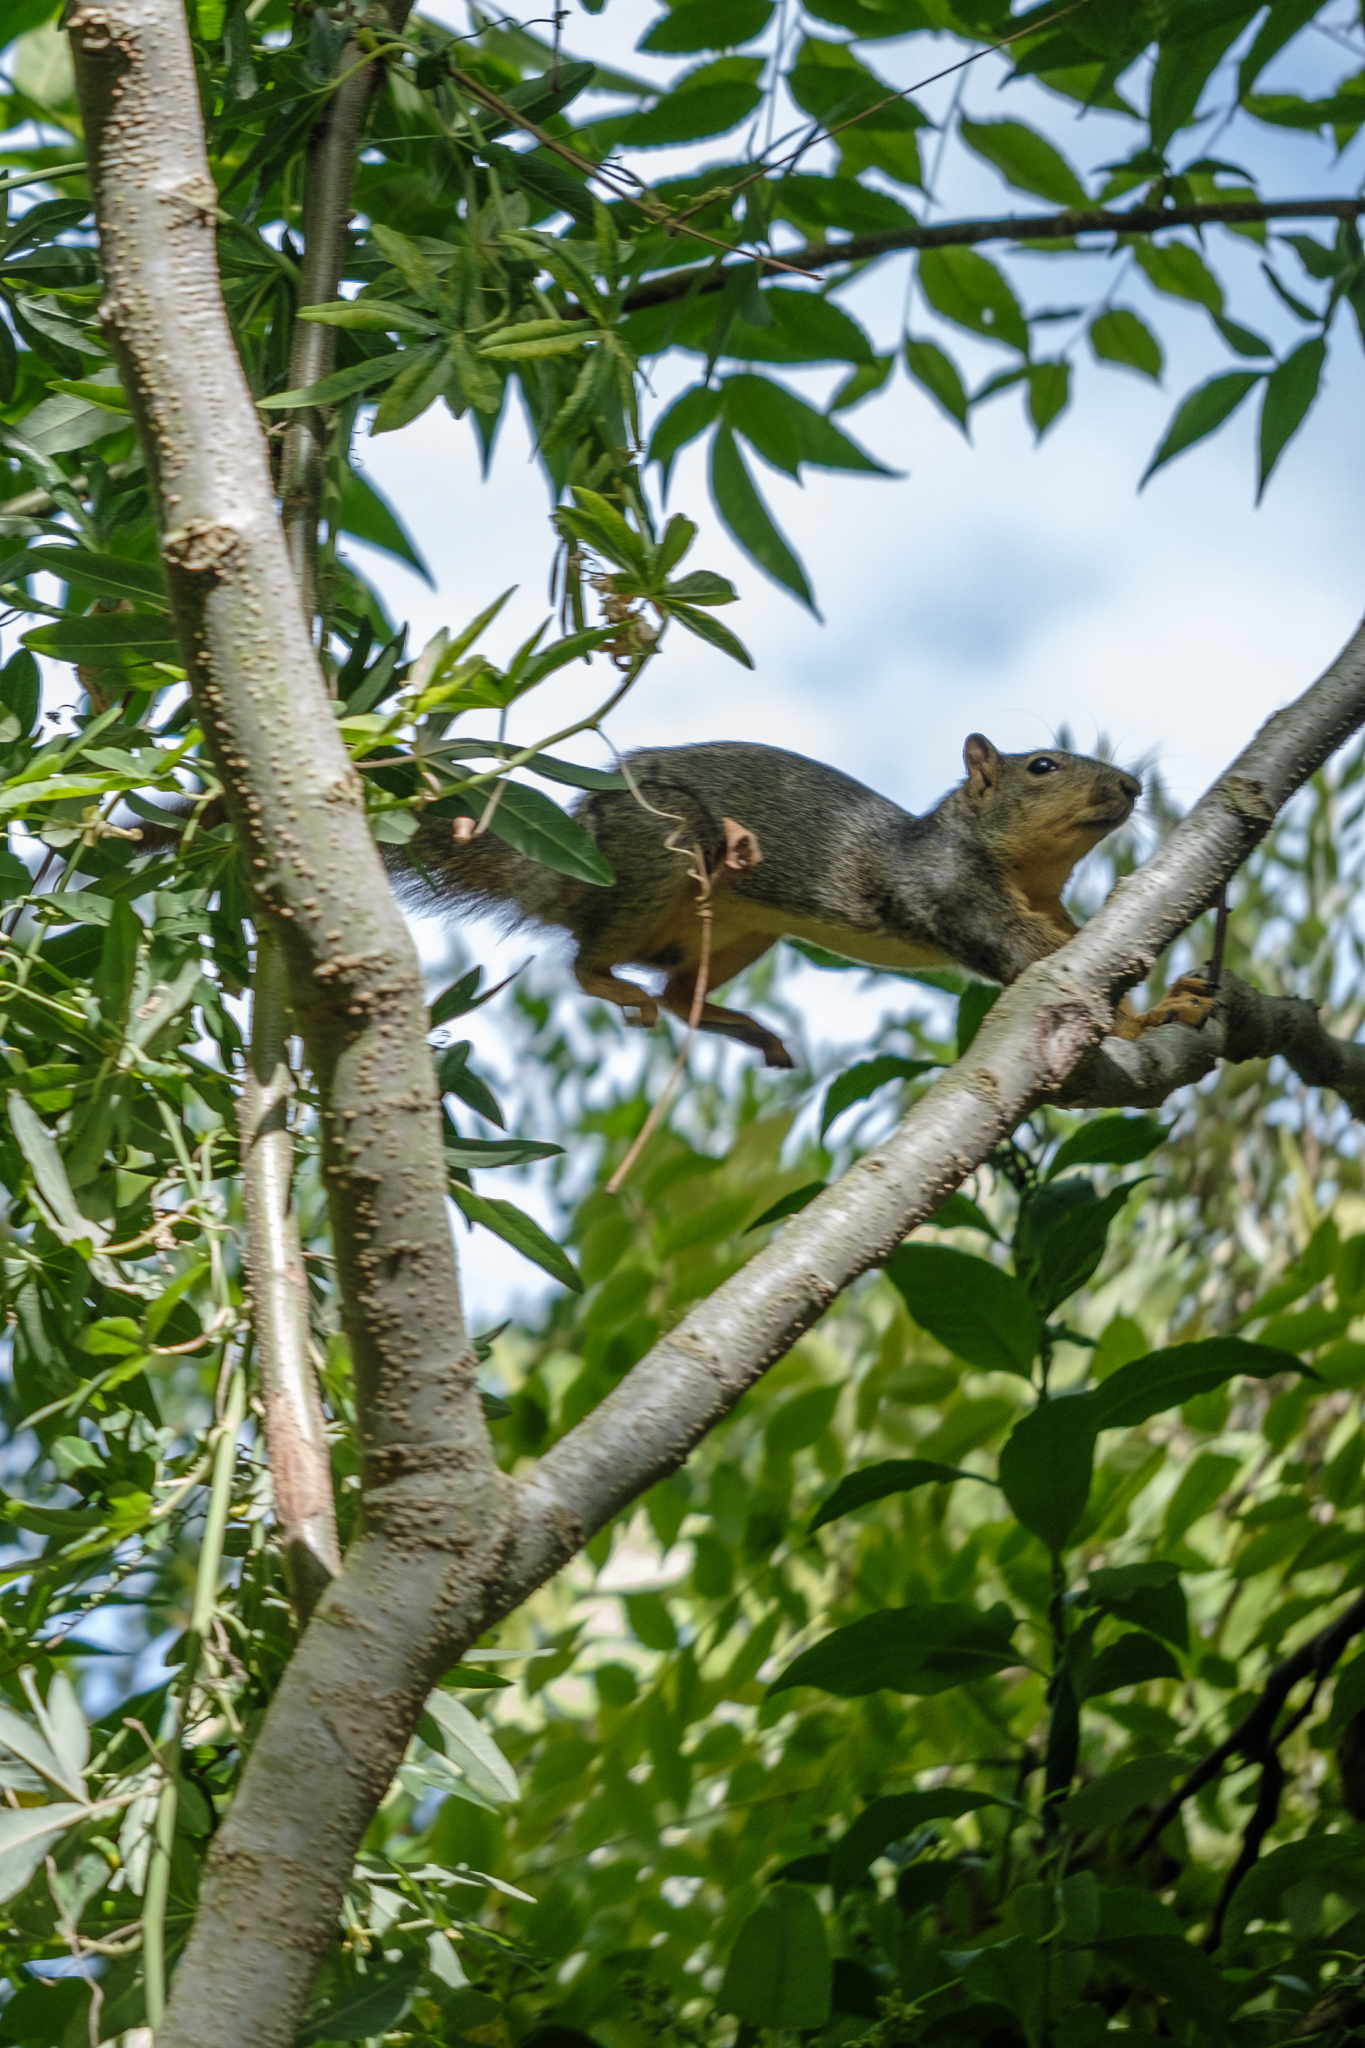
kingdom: Animalia
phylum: Chordata
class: Mammalia
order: Rodentia
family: Sciuridae
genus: Sciurus
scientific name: Sciurus niger
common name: Fox squirrel
